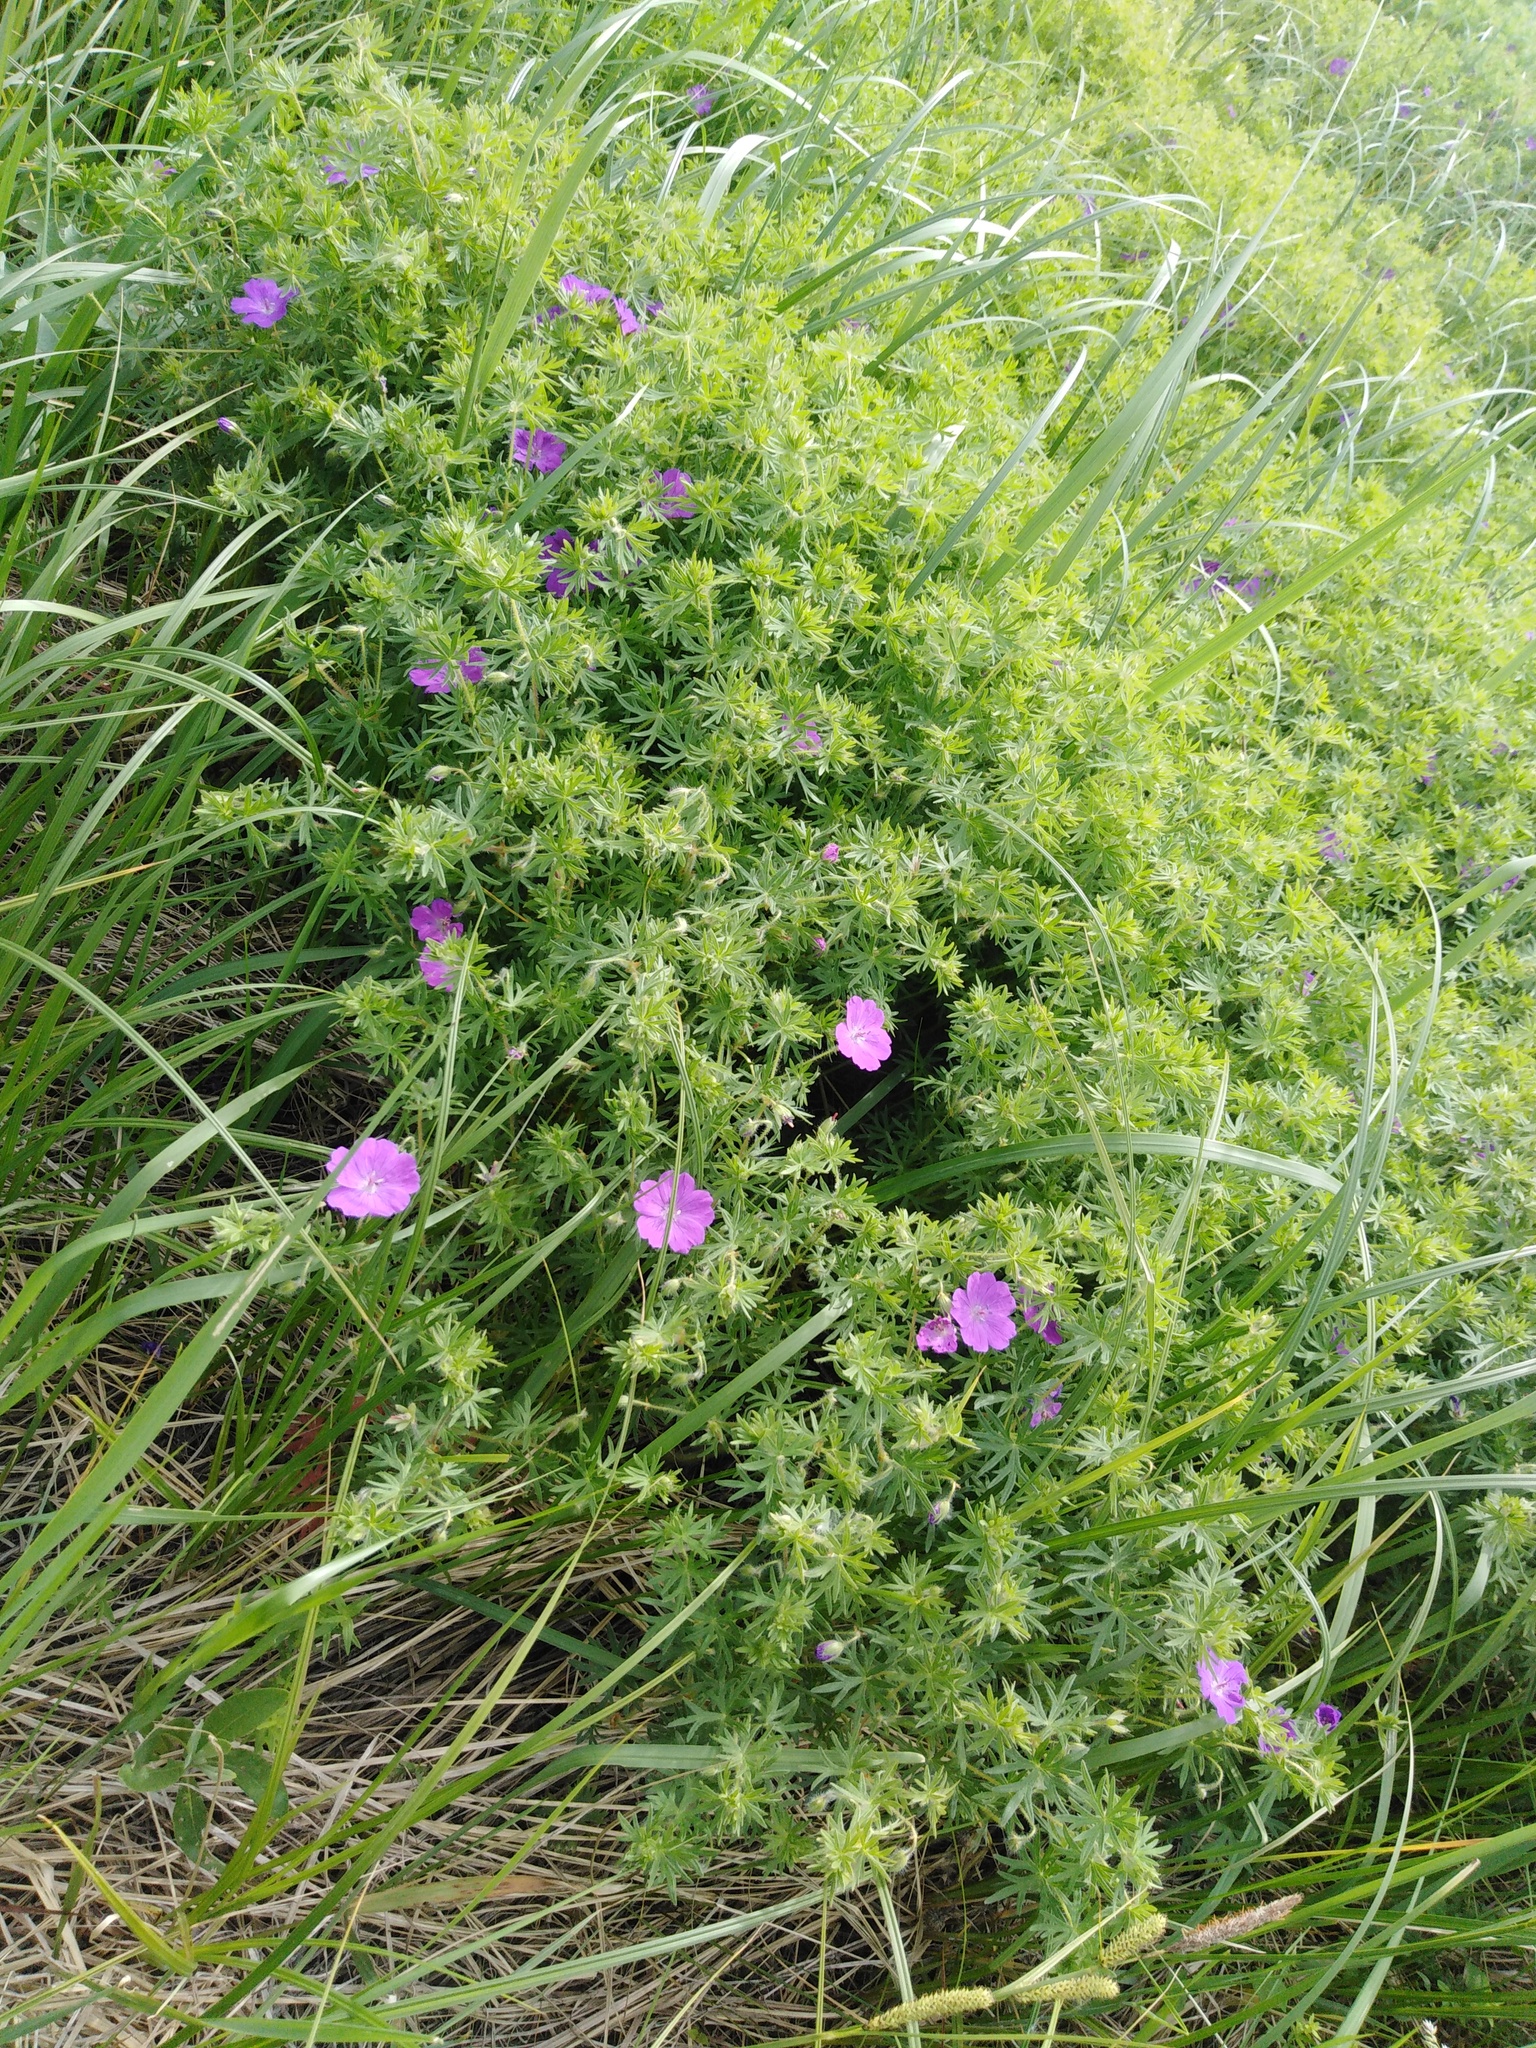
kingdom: Plantae
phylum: Tracheophyta
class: Magnoliopsida
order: Geraniales
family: Geraniaceae
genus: Geranium
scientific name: Geranium sanguineum
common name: Bloody crane's-bill
